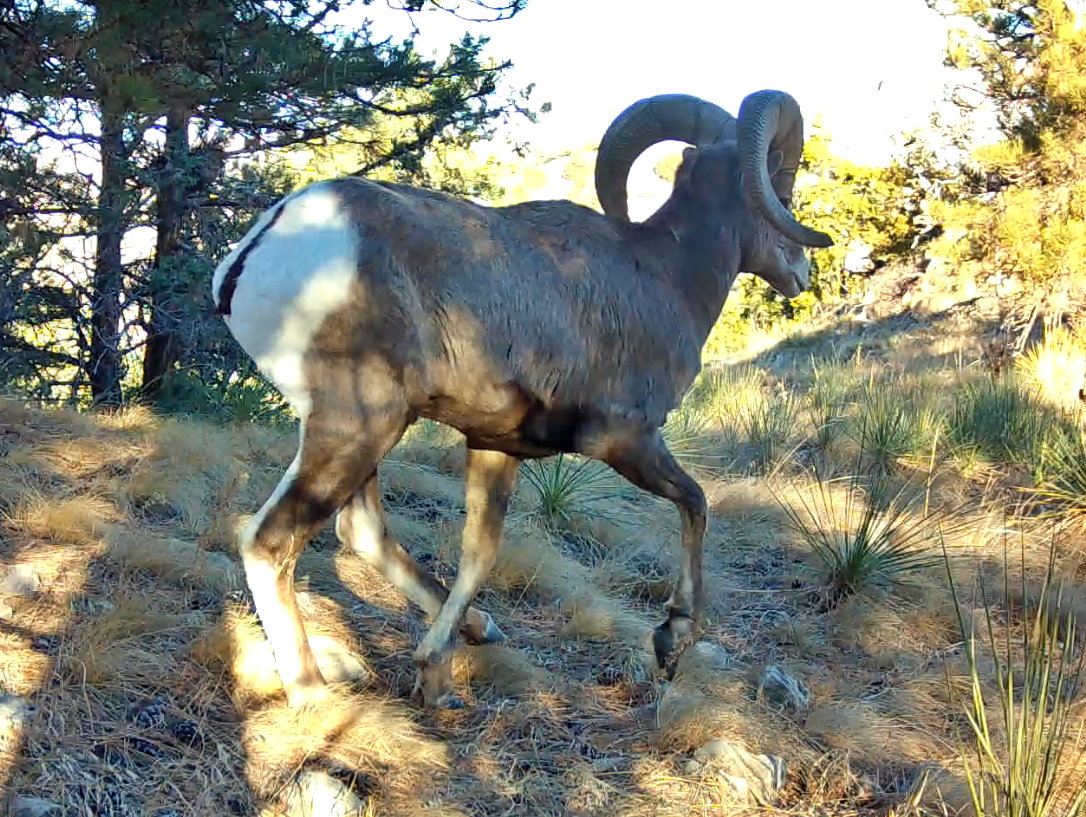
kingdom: Animalia
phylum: Chordata
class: Mammalia
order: Artiodactyla
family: Bovidae
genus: Ovis
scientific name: Ovis canadensis
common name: Bighorn sheep
